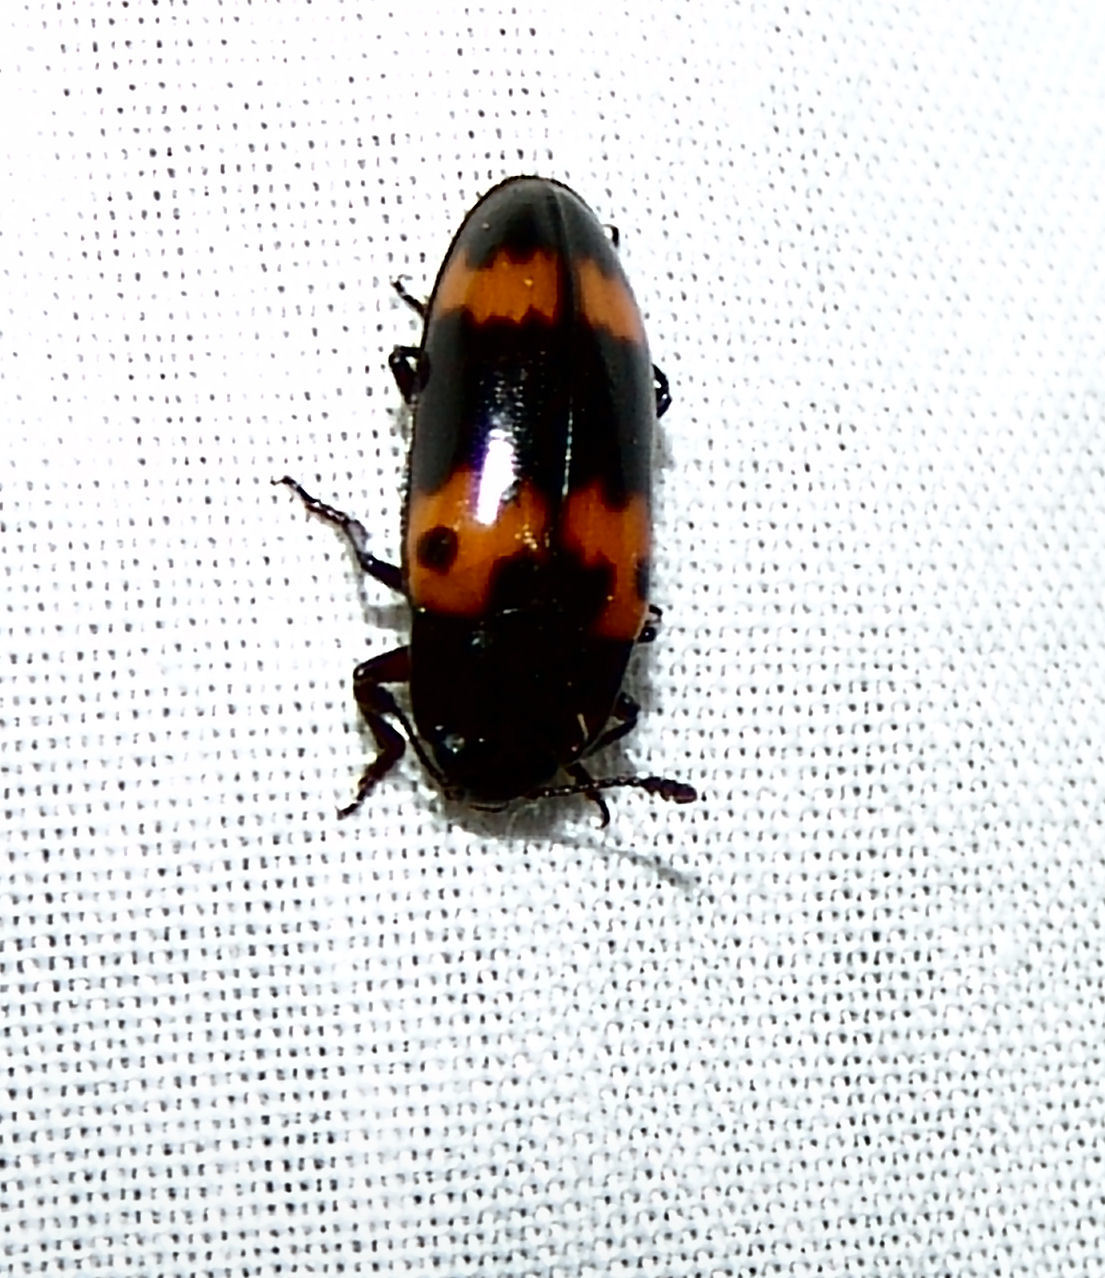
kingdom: Animalia
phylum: Arthropoda
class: Insecta
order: Coleoptera
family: Erotylidae
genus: Megalodacne
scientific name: Megalodacne fasciata
